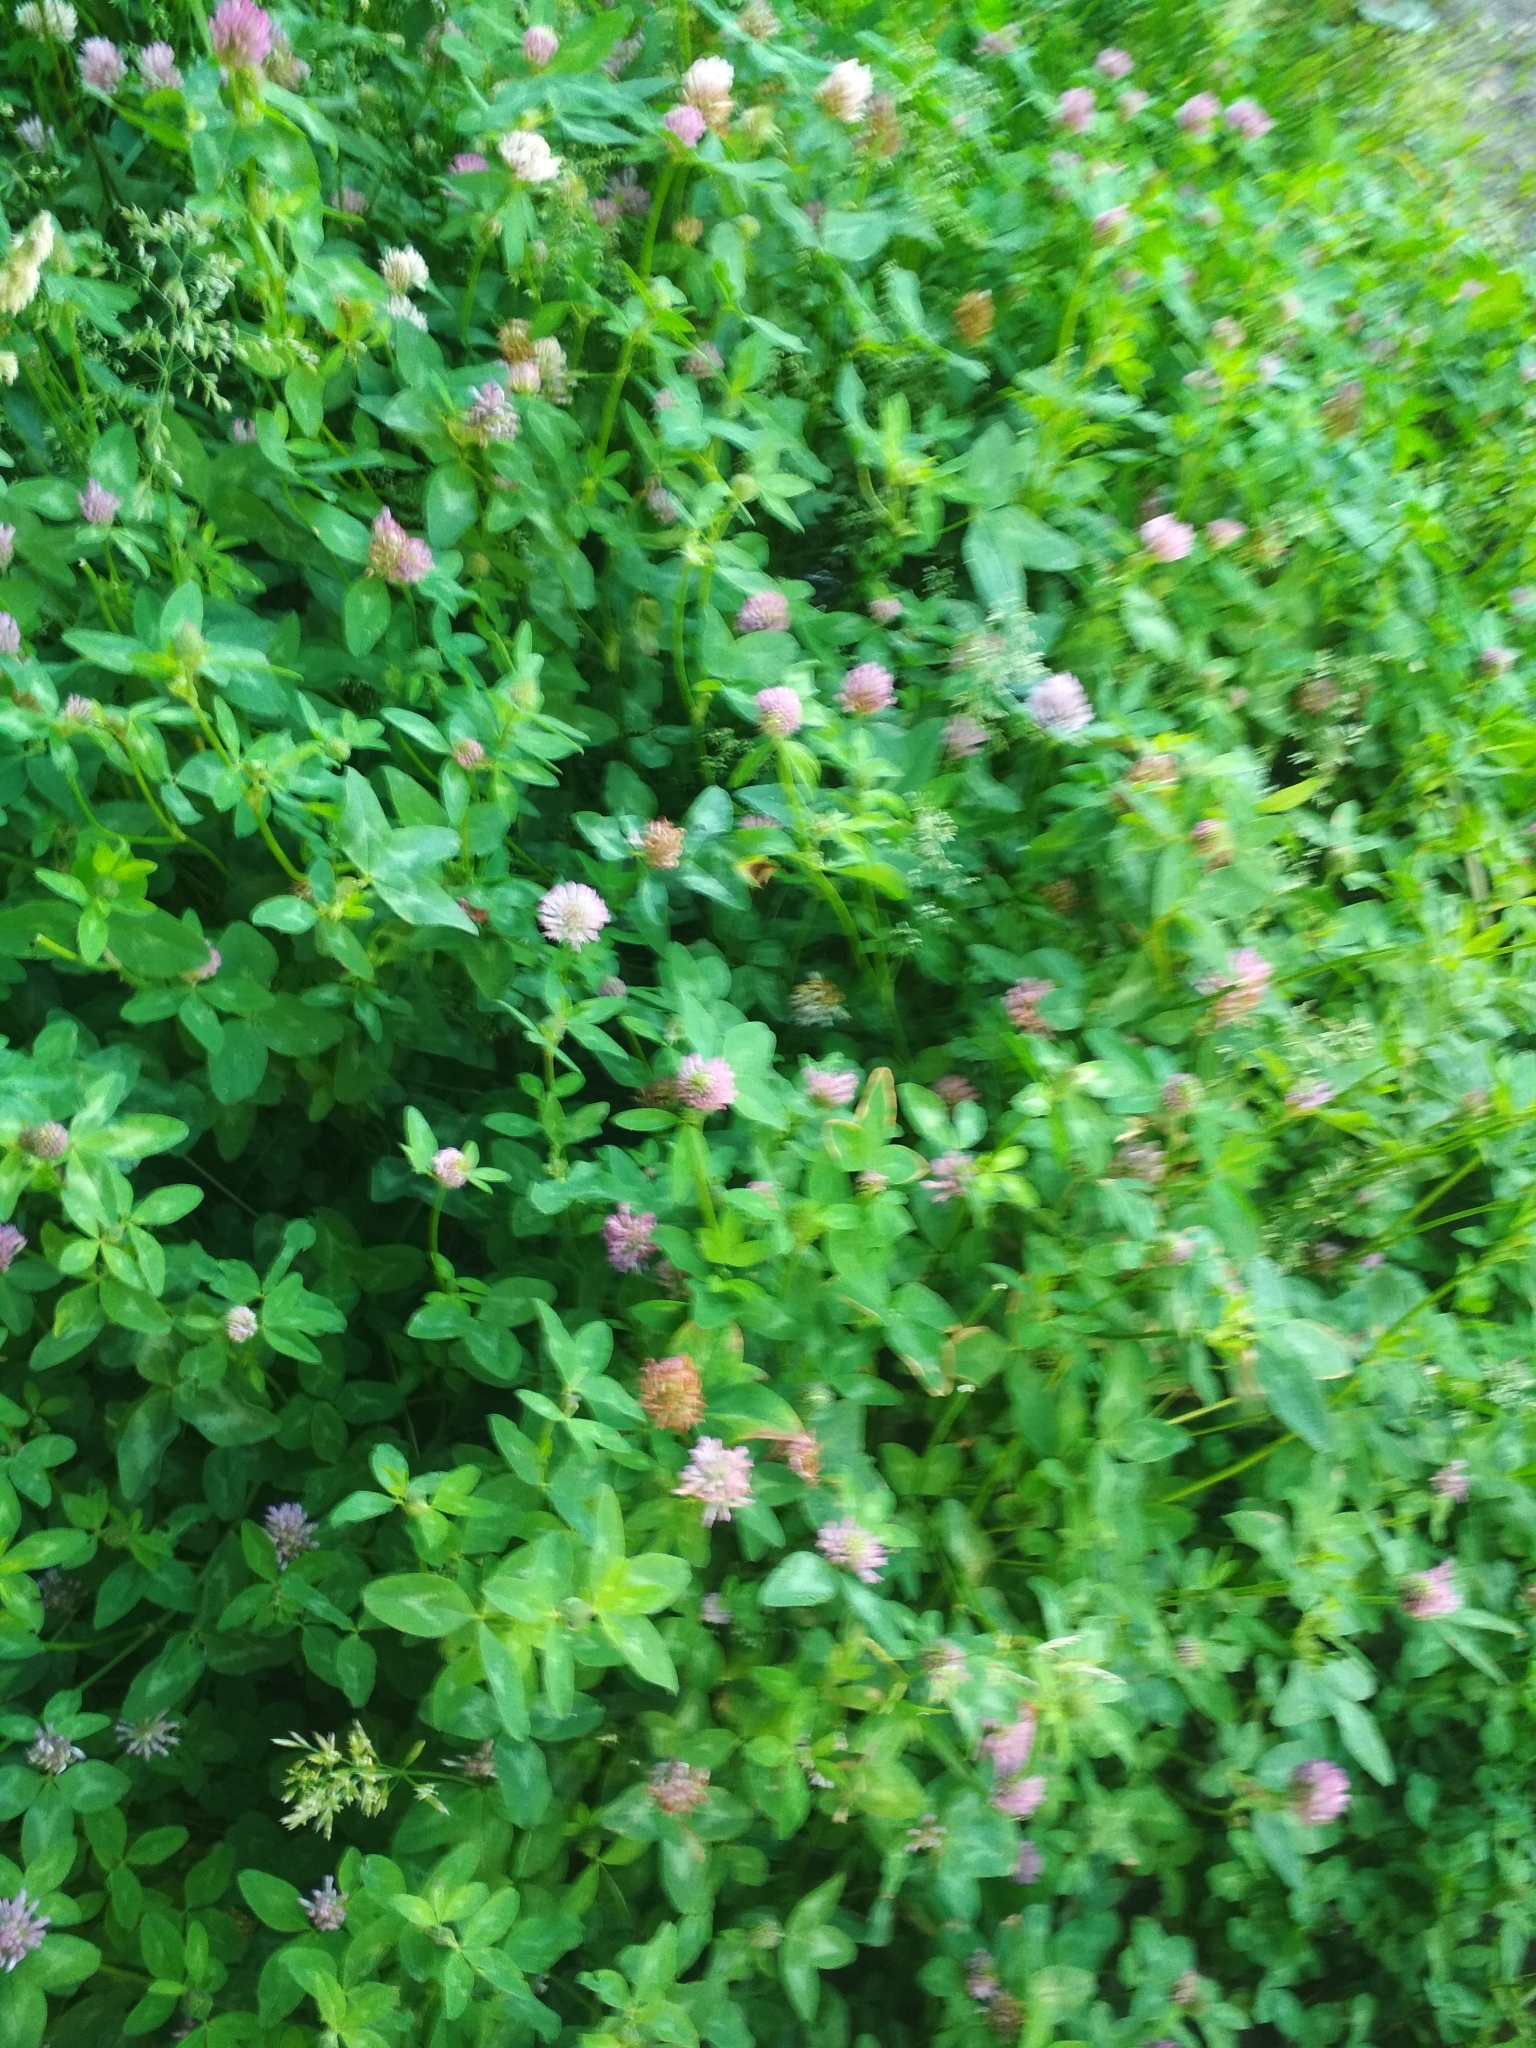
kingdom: Plantae
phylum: Tracheophyta
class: Magnoliopsida
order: Fabales
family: Fabaceae
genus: Trifolium
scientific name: Trifolium pratense
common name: Red clover
